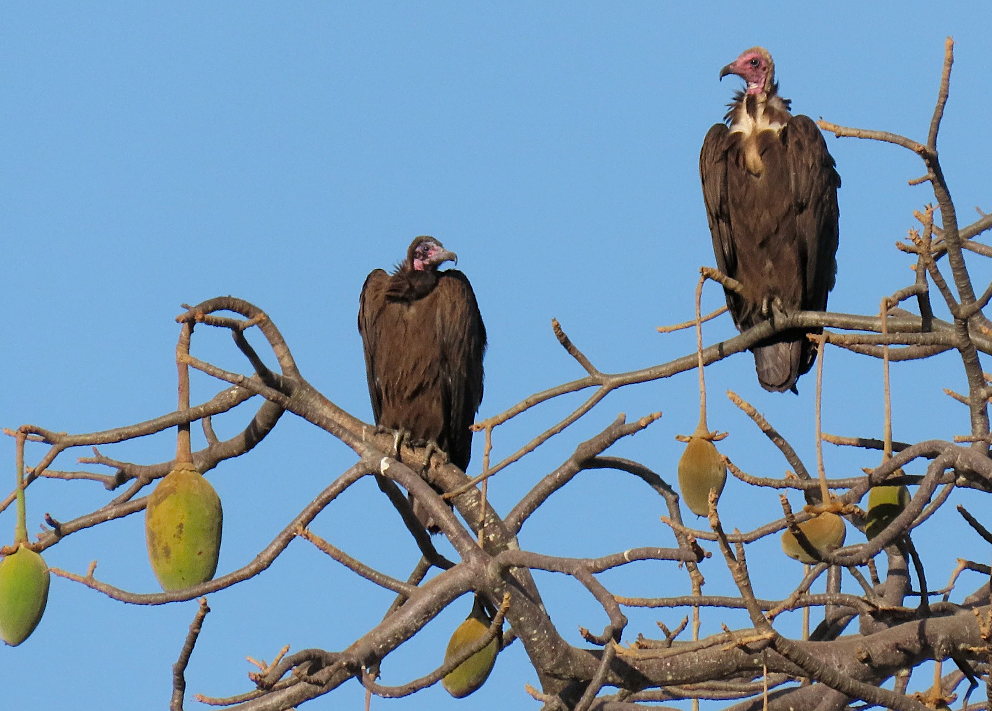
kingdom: Animalia
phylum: Chordata
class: Aves
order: Accipitriformes
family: Accipitridae
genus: Necrosyrtes
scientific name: Necrosyrtes monachus
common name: Hooded vulture
